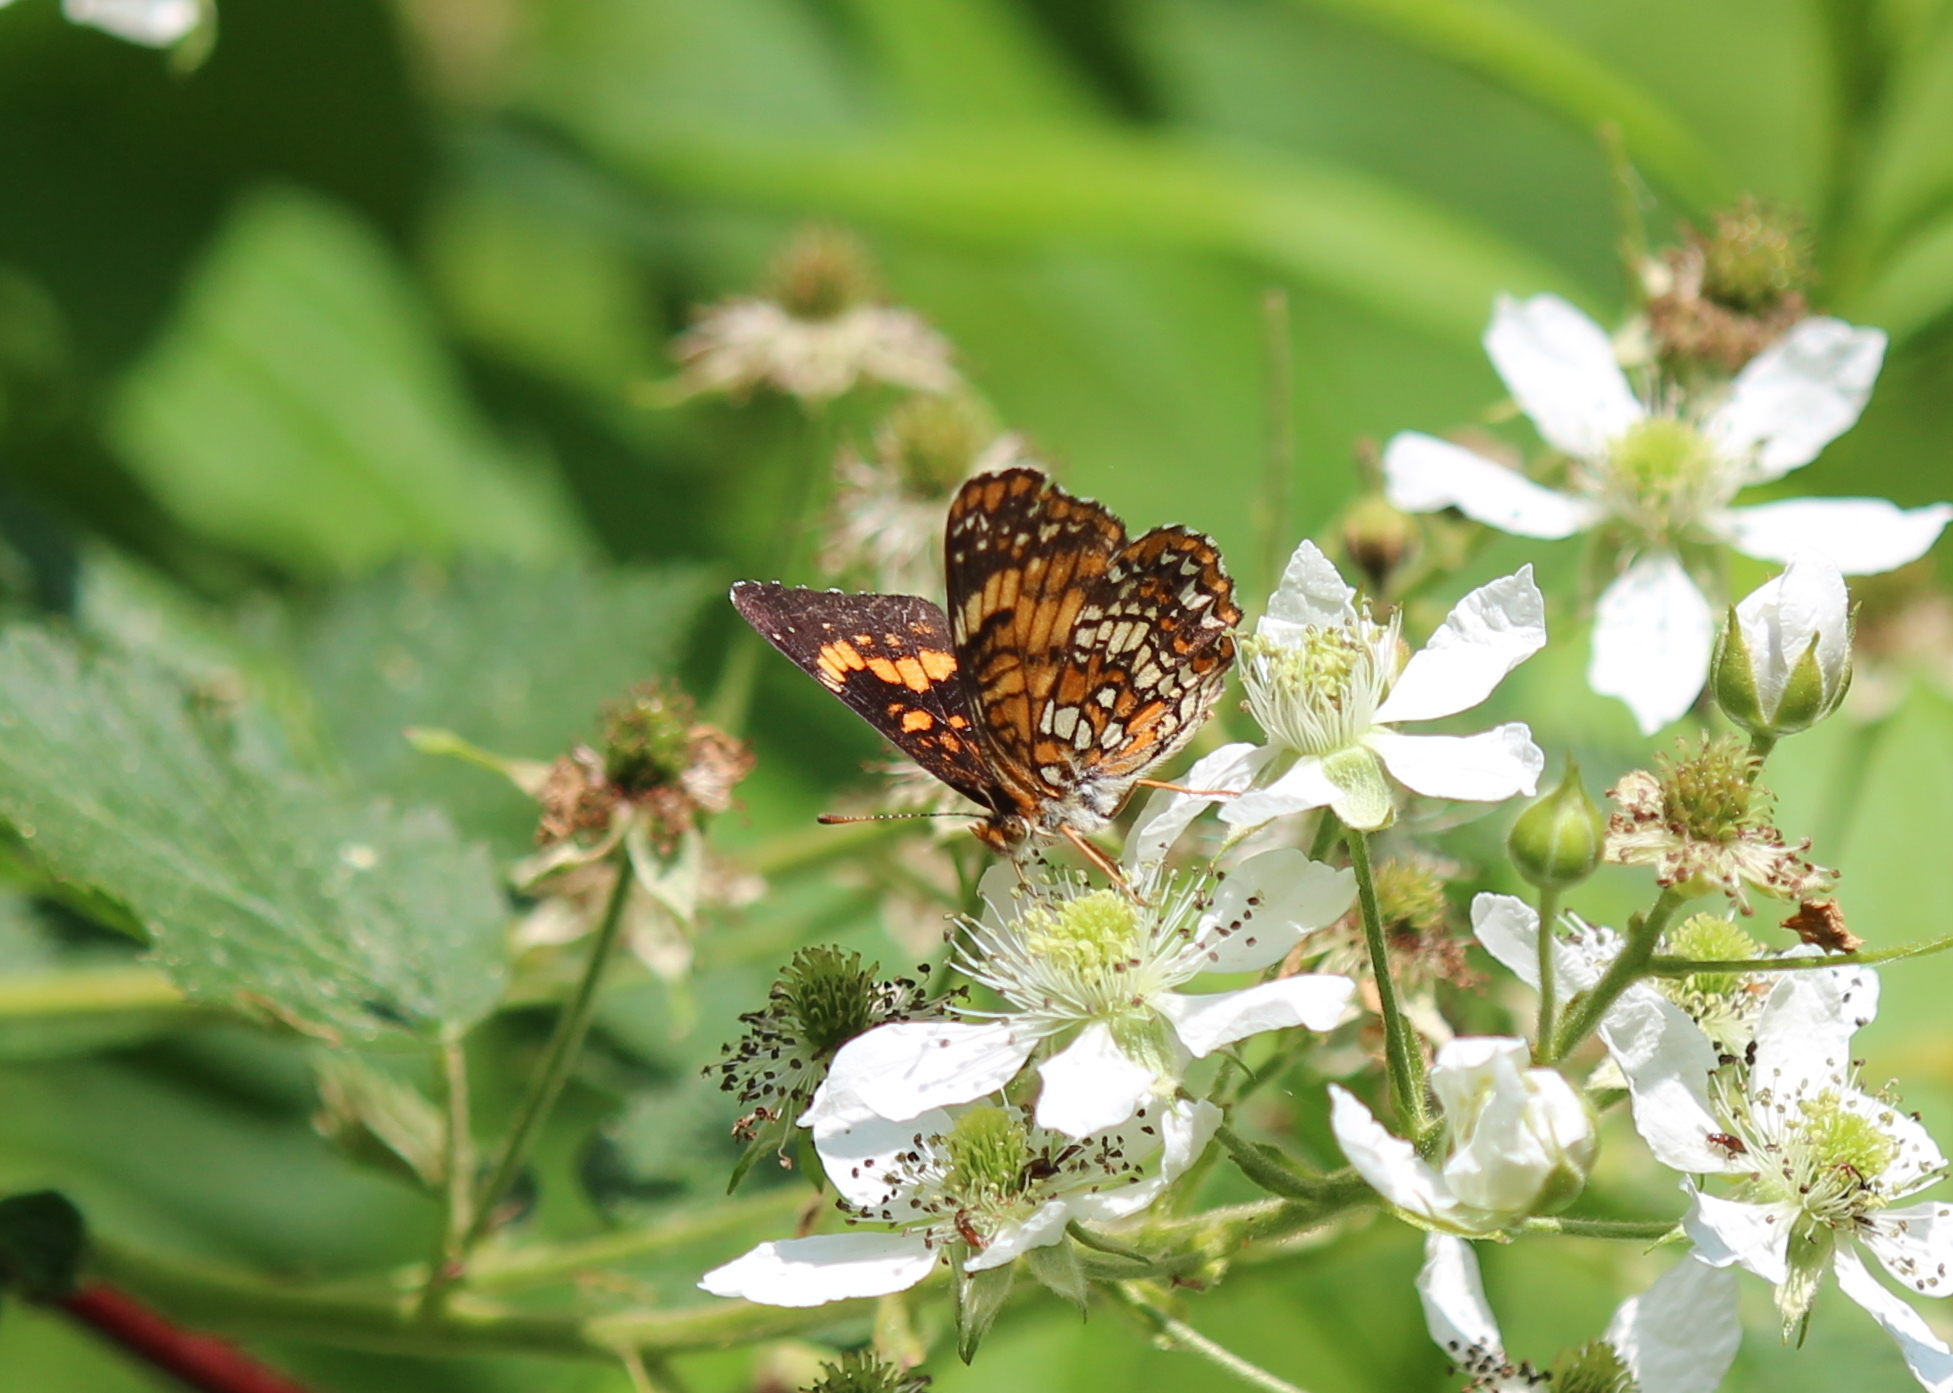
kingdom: Animalia
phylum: Arthropoda
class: Insecta
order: Lepidoptera
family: Nymphalidae
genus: Chlosyne
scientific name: Chlosyne harrisii
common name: Harris's checkerspot
